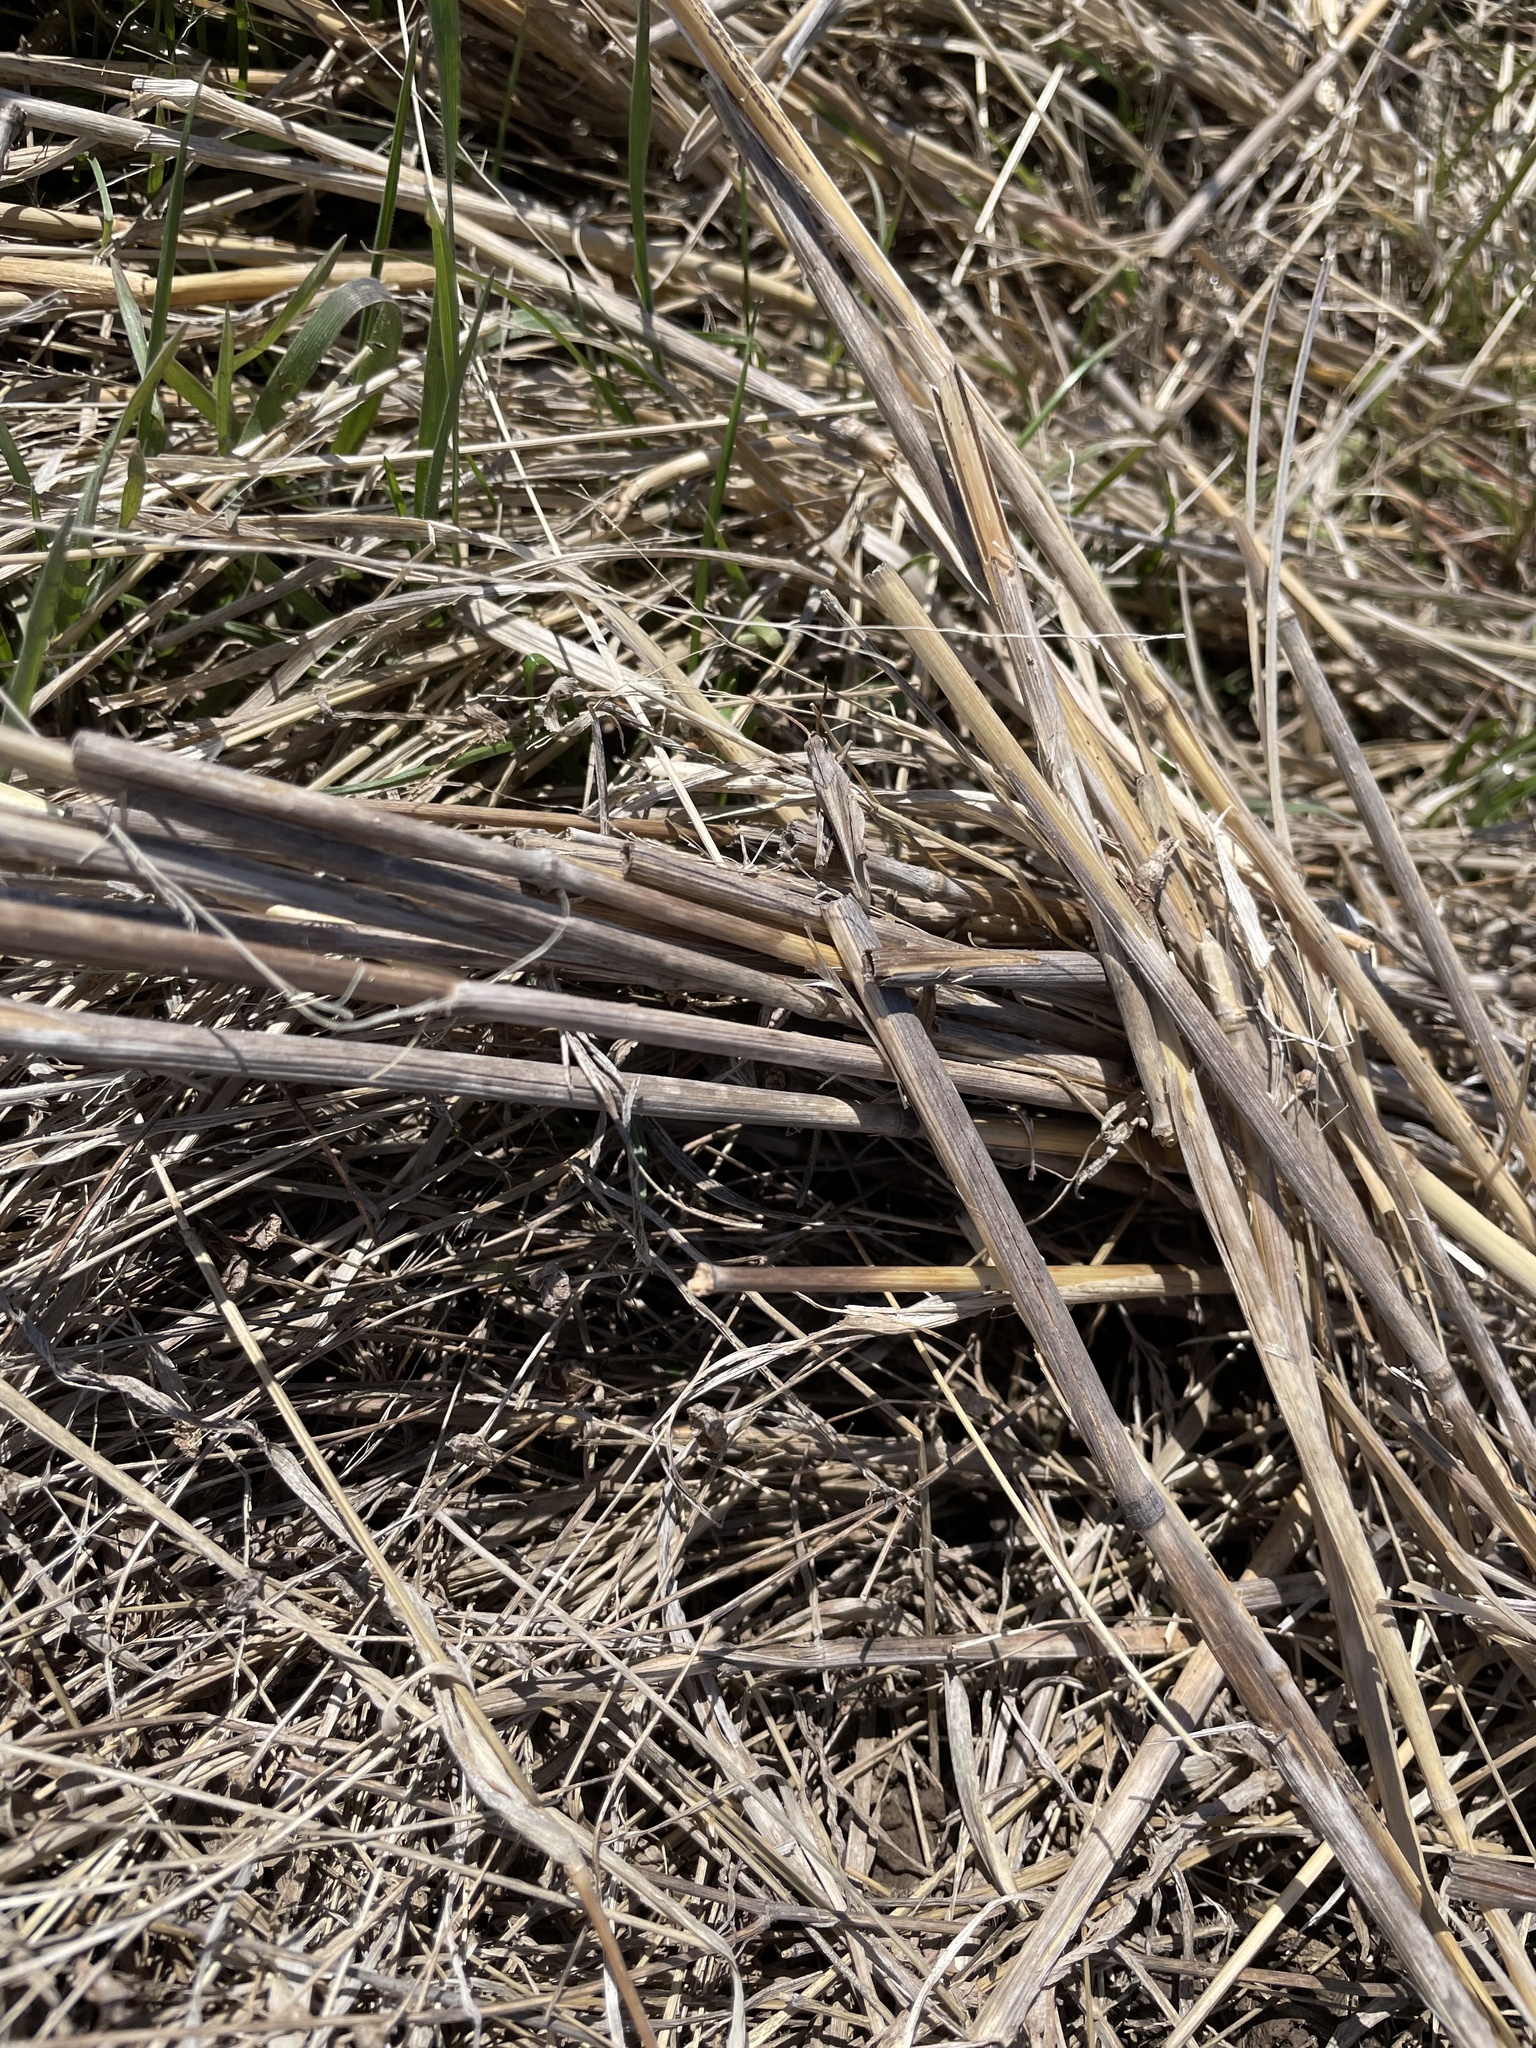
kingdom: Animalia
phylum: Arthropoda
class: Insecta
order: Orthoptera
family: Acrididae
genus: Chortophaga
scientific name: Chortophaga viridifasciata
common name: Green-striped grasshopper
